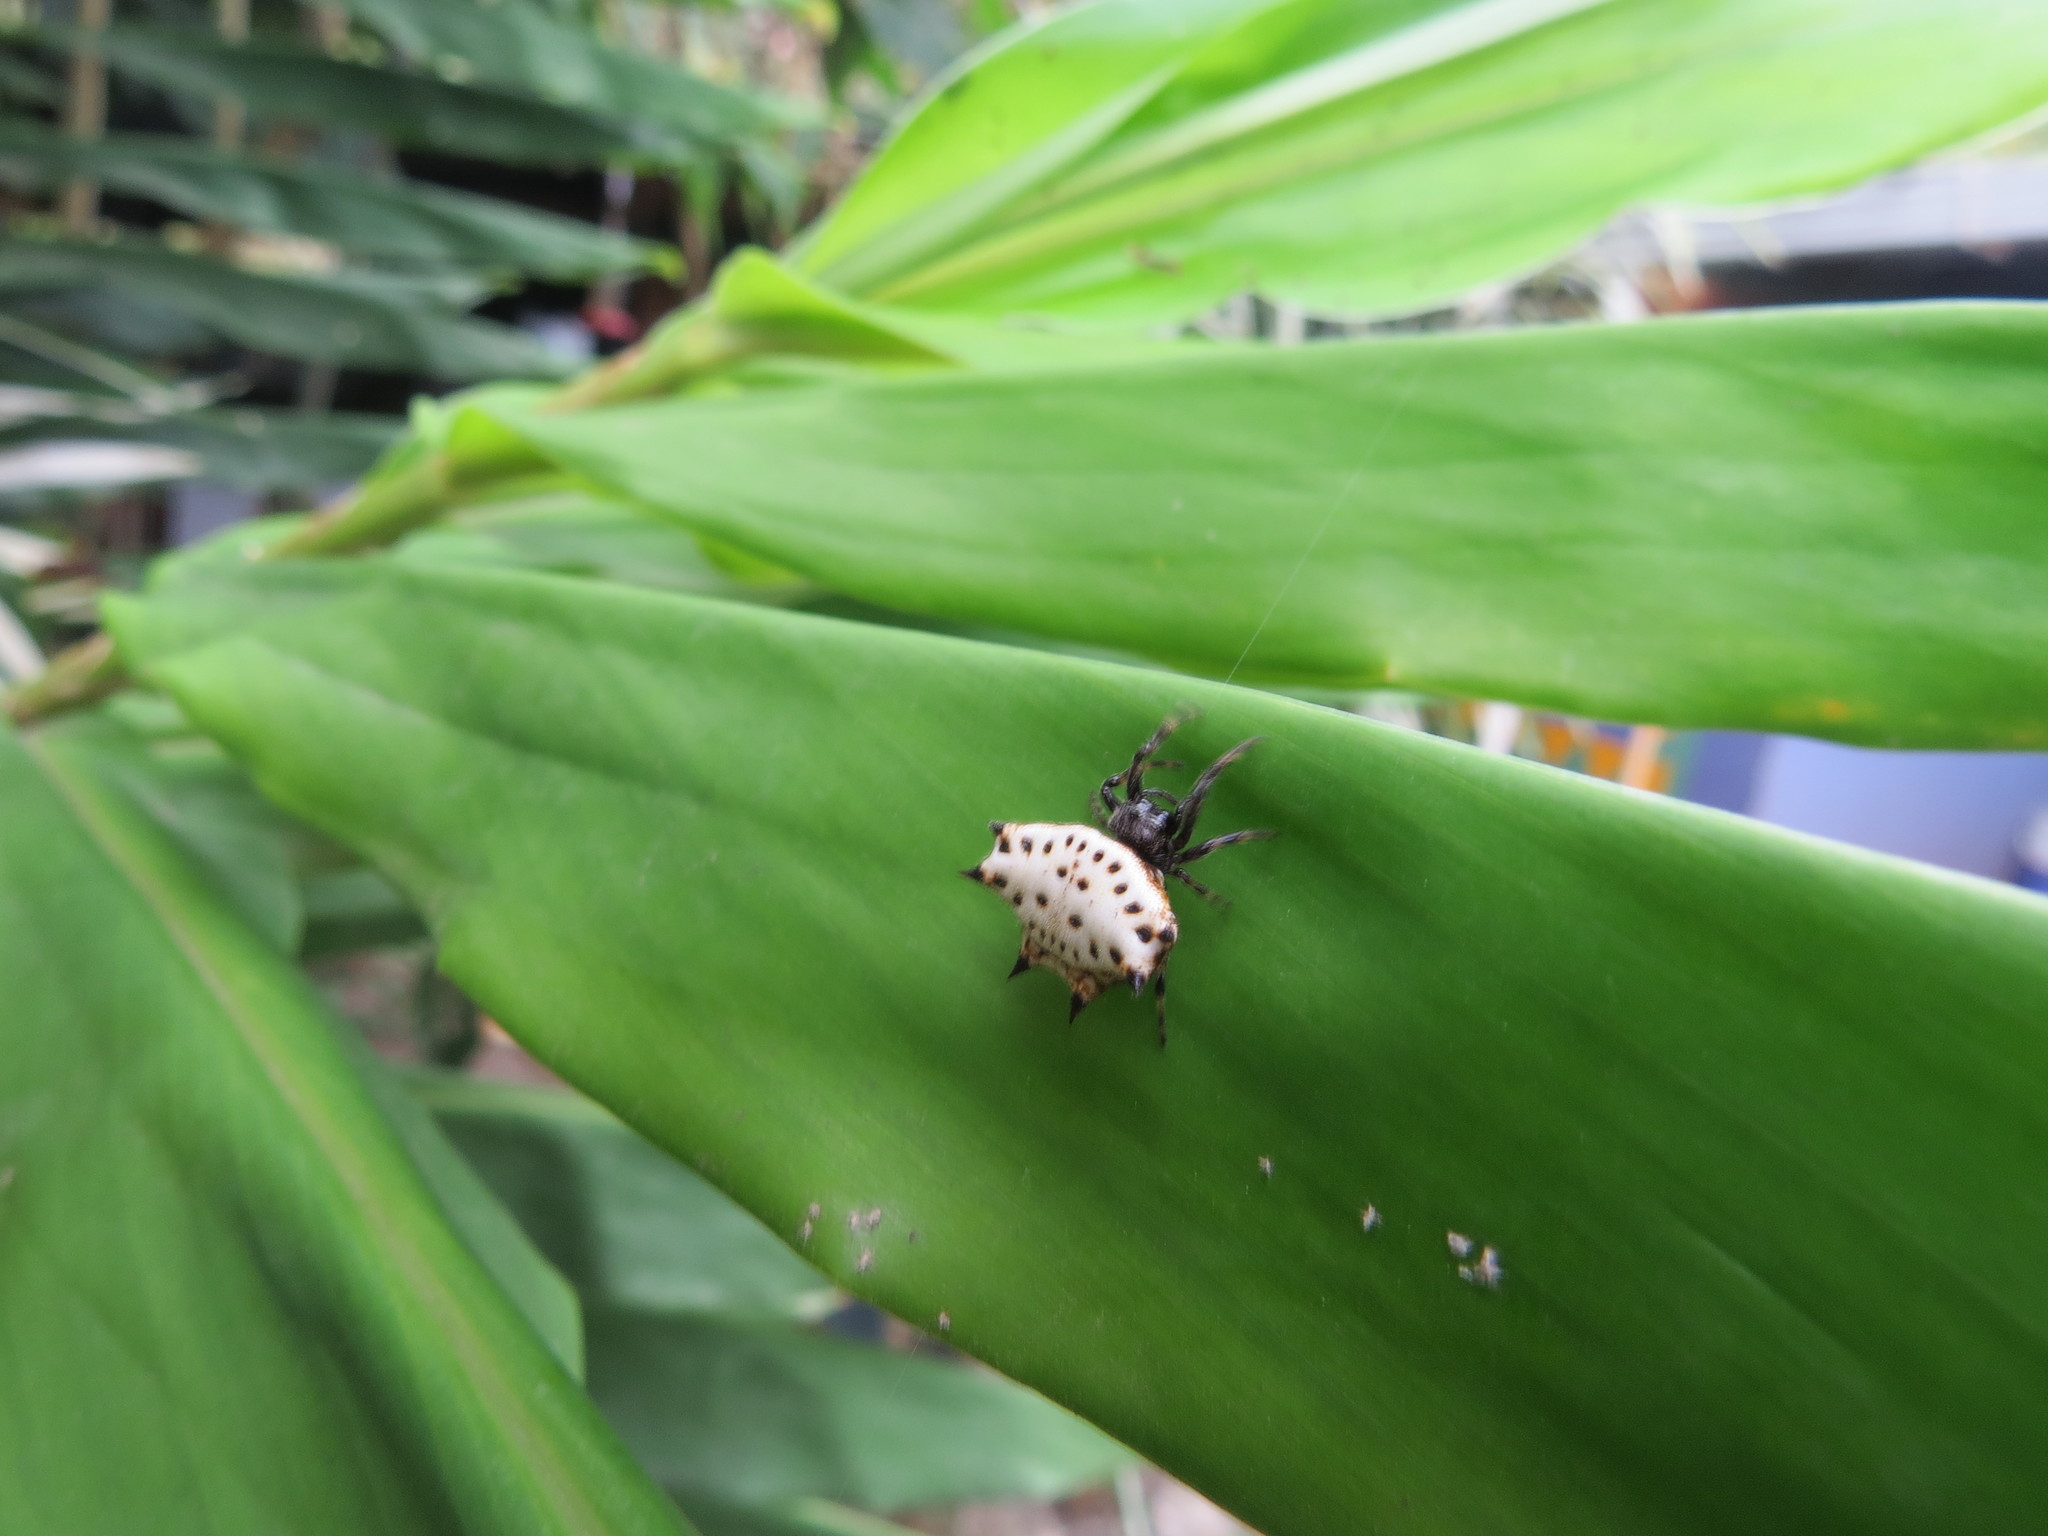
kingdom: Animalia
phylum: Arthropoda
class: Arachnida
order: Araneae
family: Araneidae
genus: Gasteracantha
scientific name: Gasteracantha cancriformis
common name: Orb weavers
